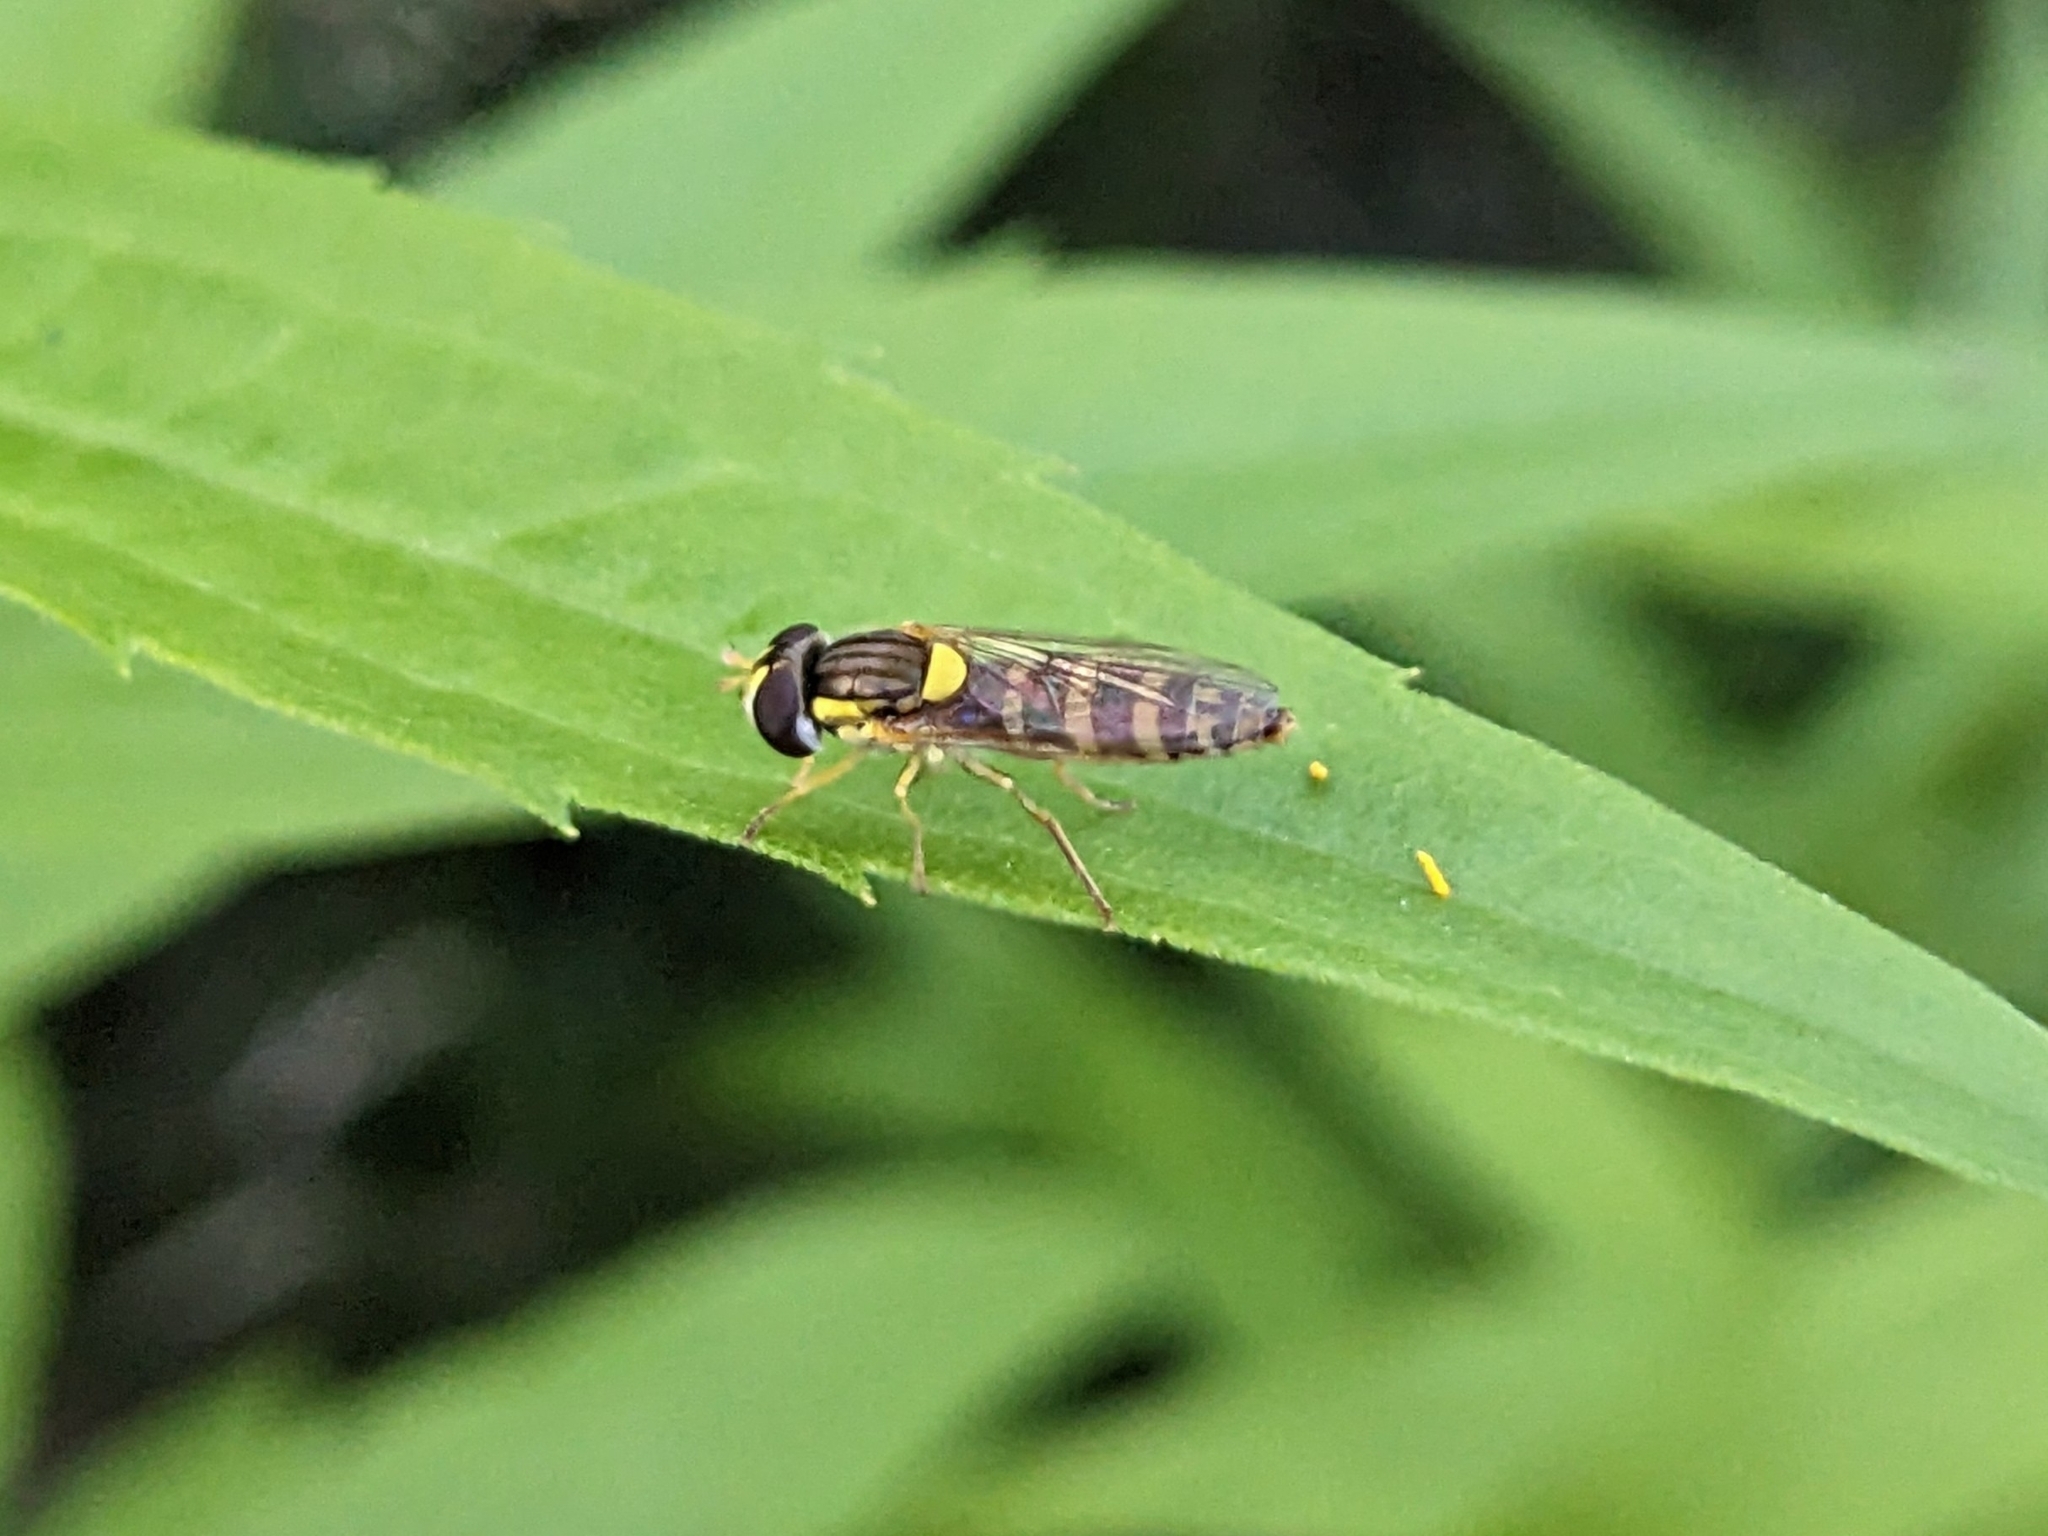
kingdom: Animalia
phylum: Arthropoda
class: Insecta
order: Diptera
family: Syrphidae
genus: Sphaerophoria
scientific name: Sphaerophoria
